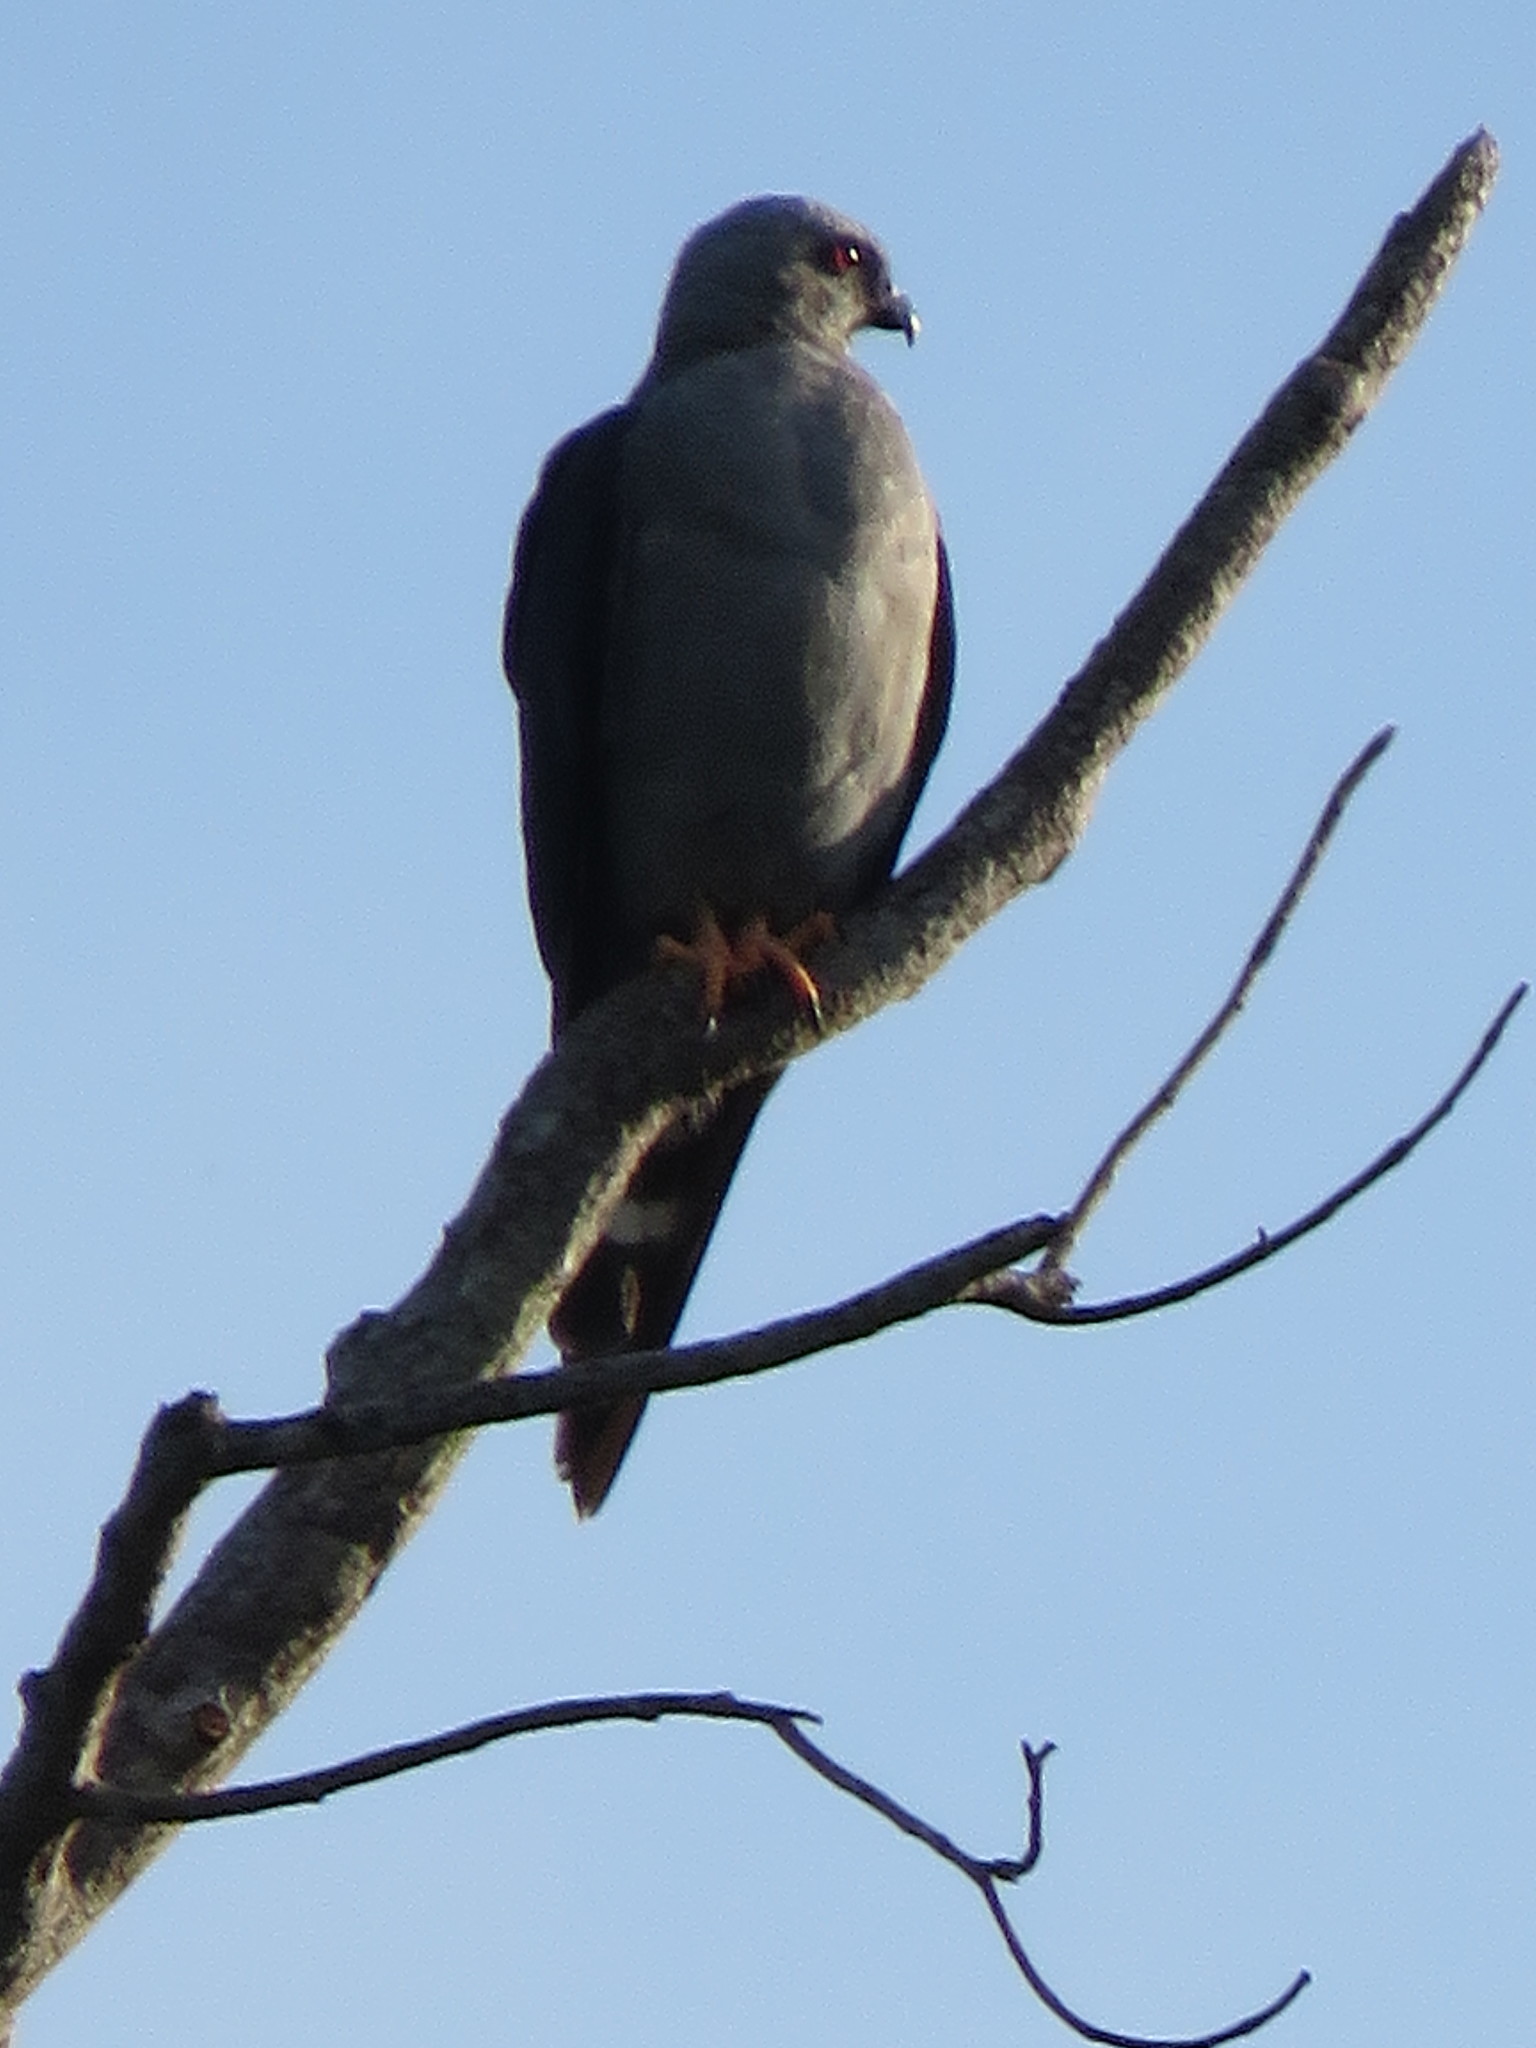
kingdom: Animalia
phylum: Chordata
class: Aves
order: Accipitriformes
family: Accipitridae
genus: Ictinia
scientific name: Ictinia plumbea
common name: Plumbeous kite
